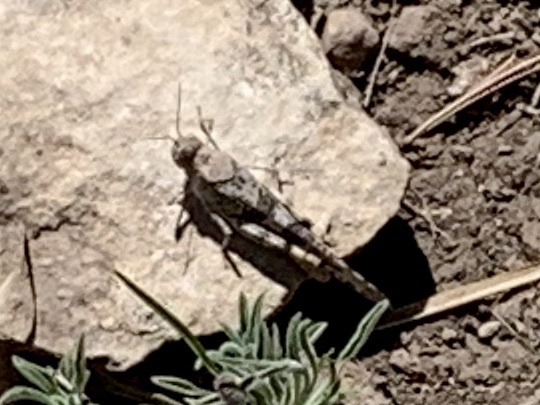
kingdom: Animalia
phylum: Arthropoda
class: Insecta
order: Orthoptera
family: Acrididae
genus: Trimerotropis
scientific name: Trimerotropis pallidipennis
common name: Pallid-winged grasshopper
